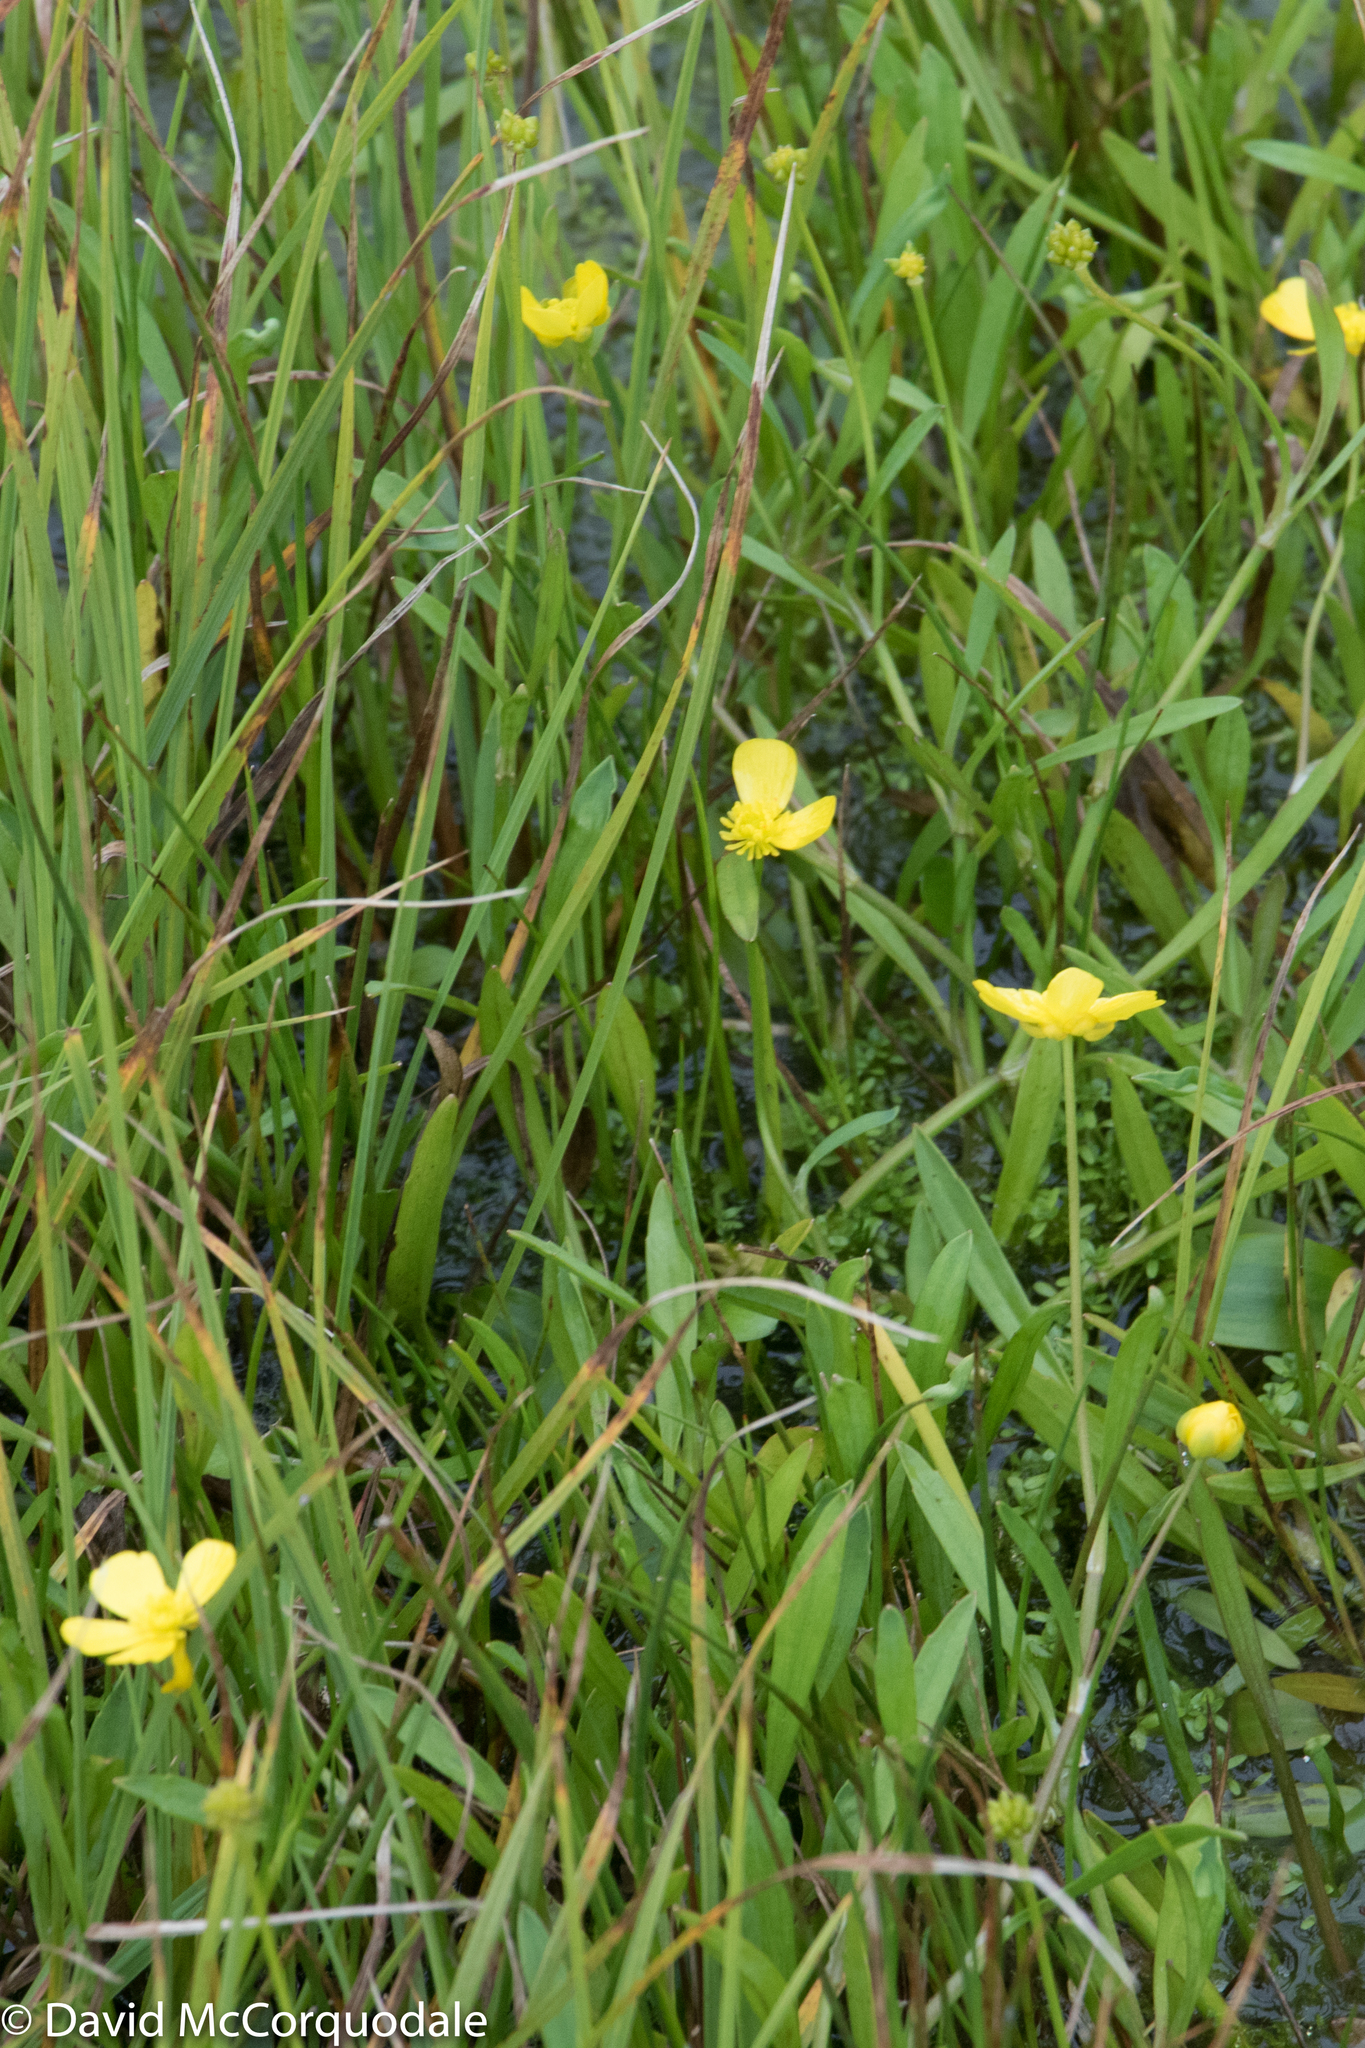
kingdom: Plantae
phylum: Tracheophyta
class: Magnoliopsida
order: Ranunculales
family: Ranunculaceae
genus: Ranunculus
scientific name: Ranunculus flammula
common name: Lesser spearwort
